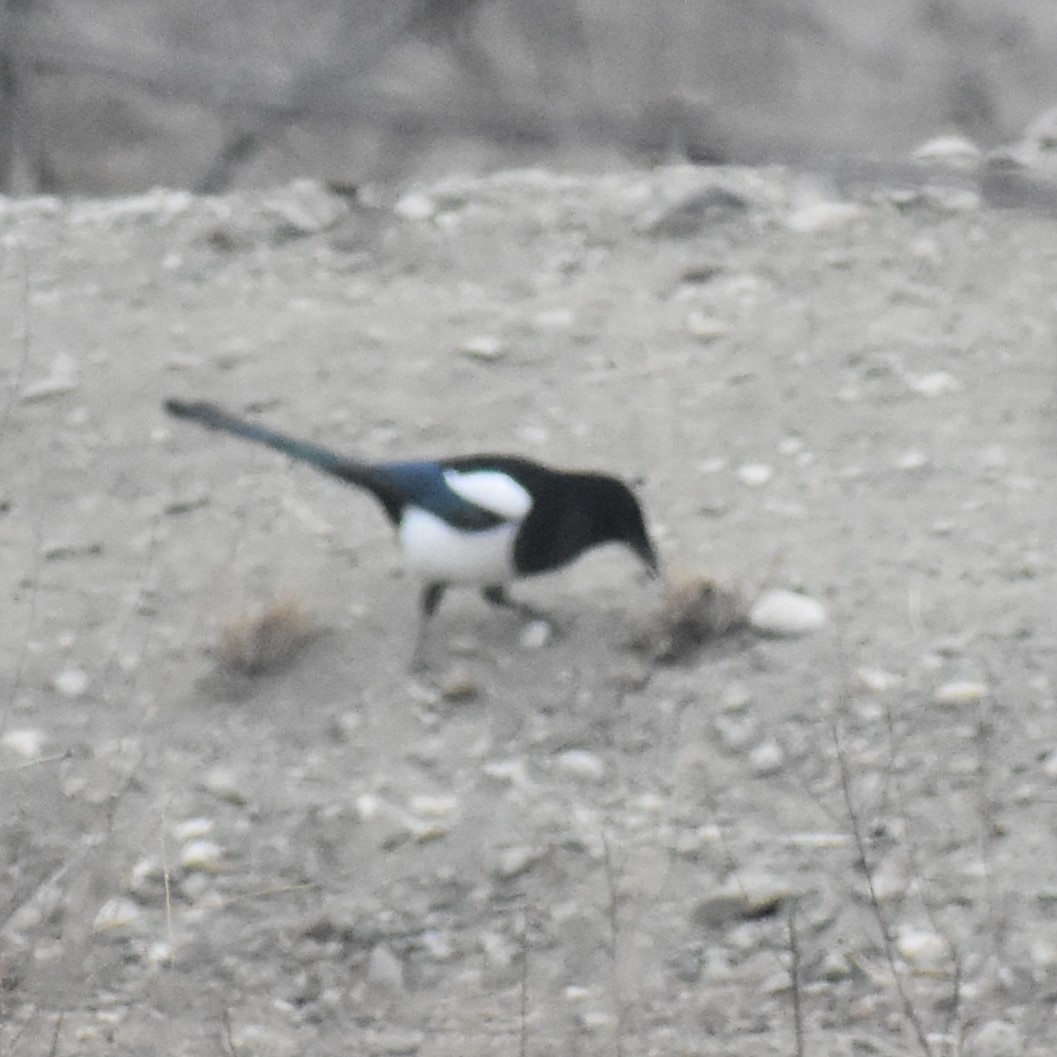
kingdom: Animalia
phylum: Chordata
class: Aves
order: Passeriformes
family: Corvidae
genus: Pica
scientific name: Pica pica
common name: Eurasian magpie
